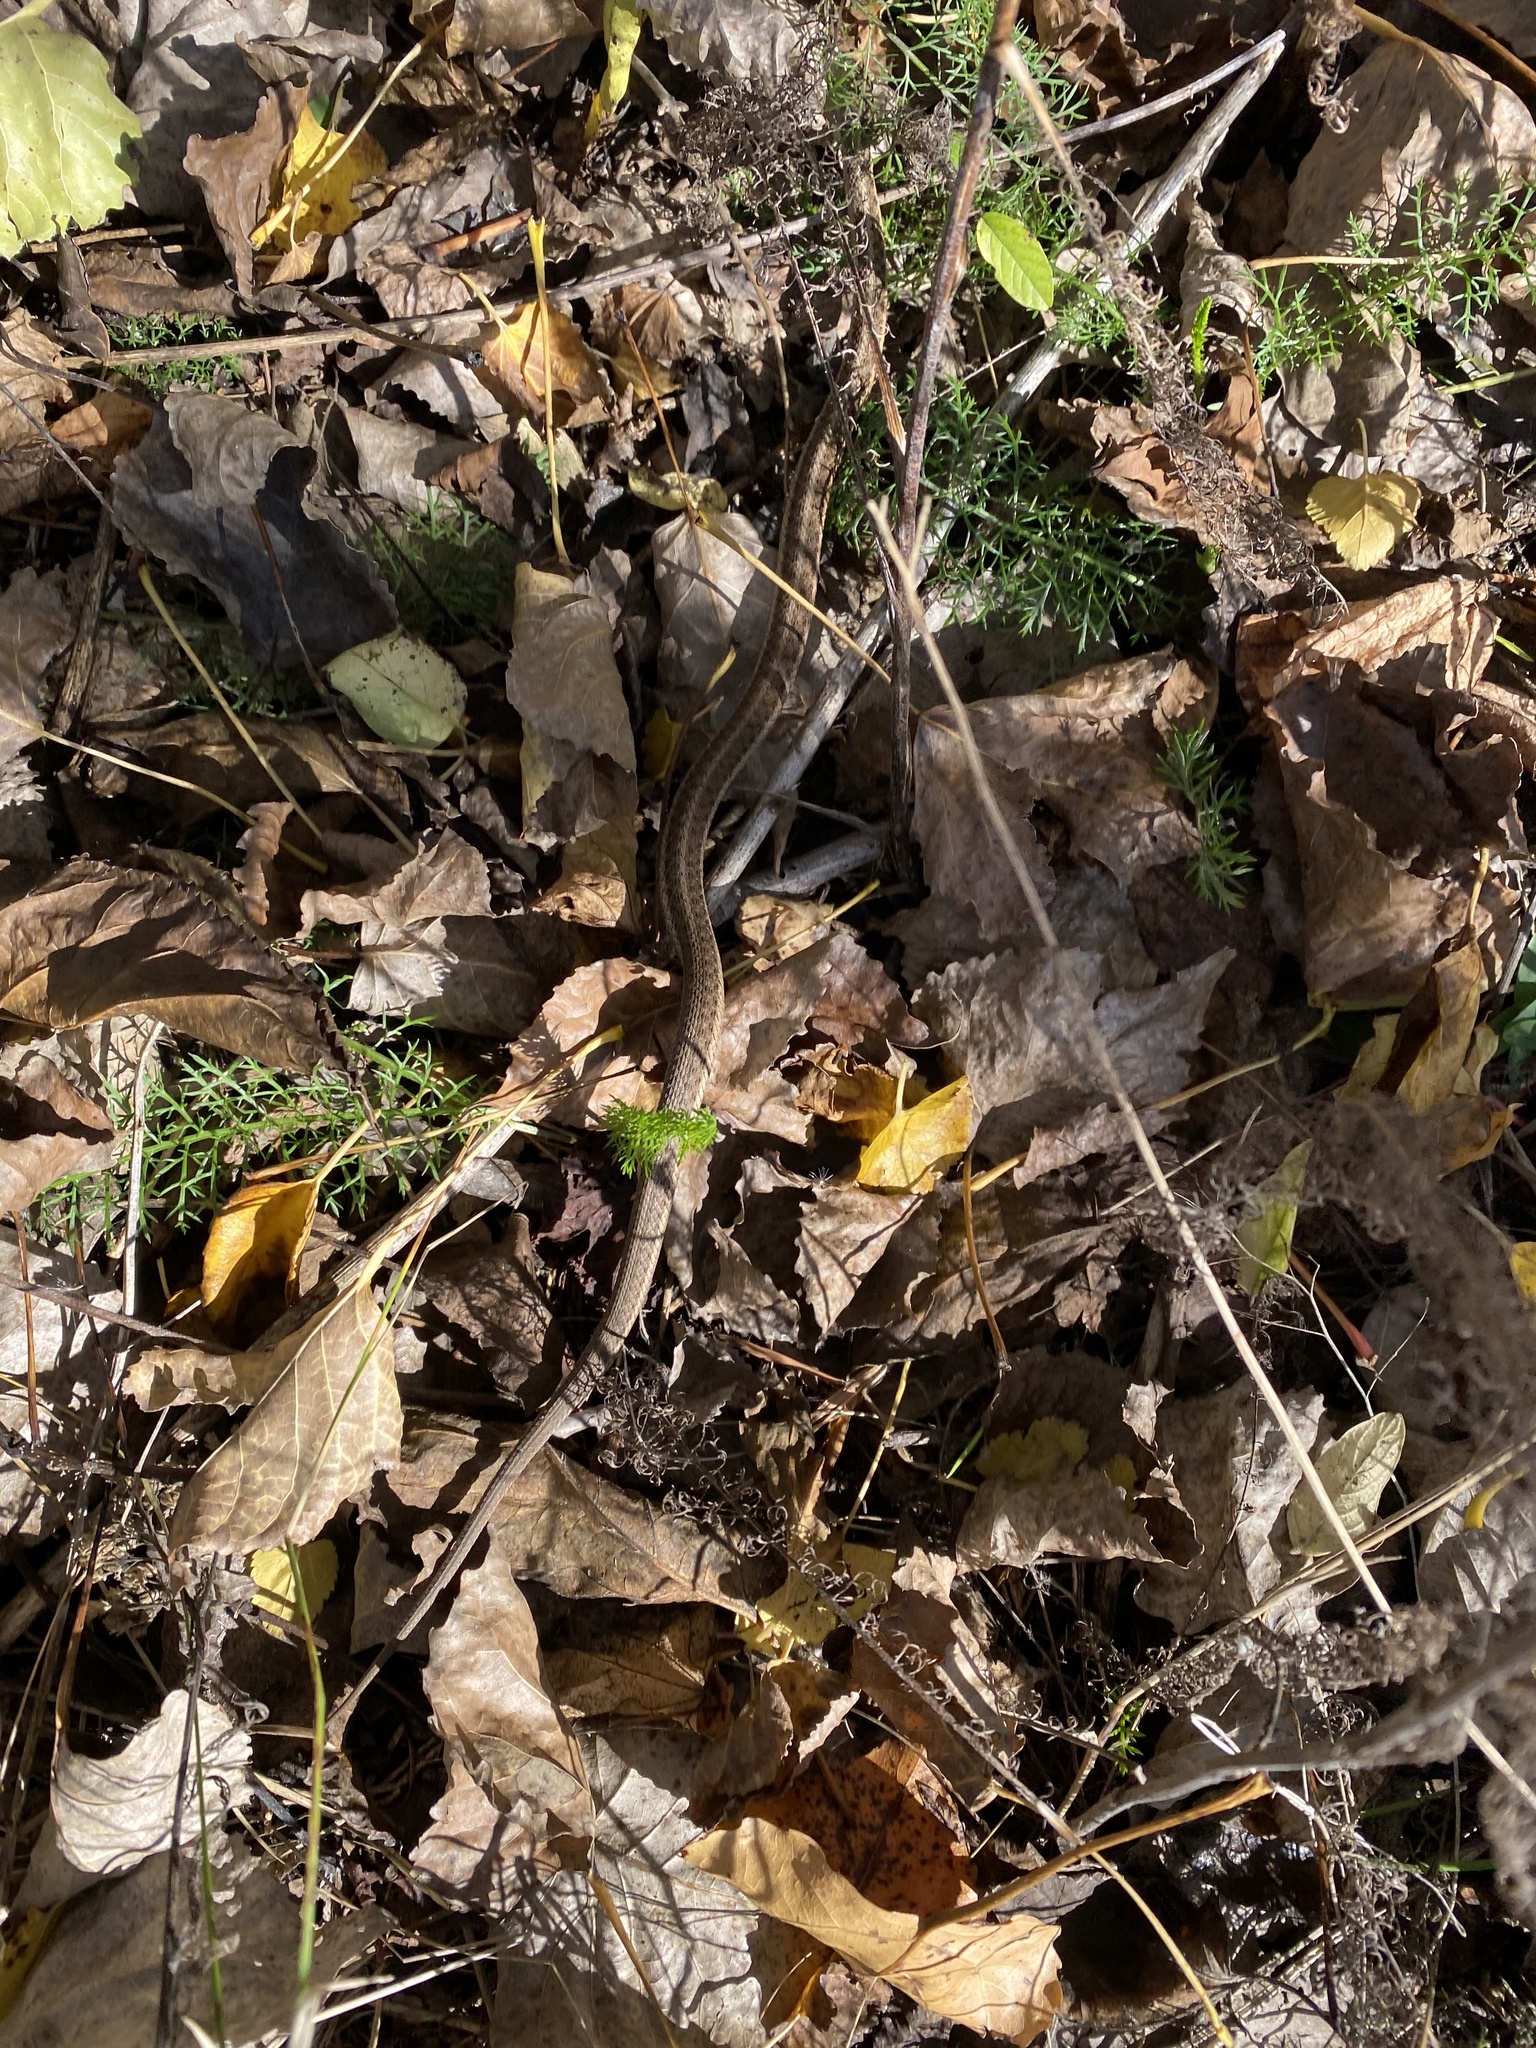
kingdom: Animalia
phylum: Chordata
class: Squamata
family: Colubridae
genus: Thamnophis
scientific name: Thamnophis sirtalis
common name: Common garter snake
